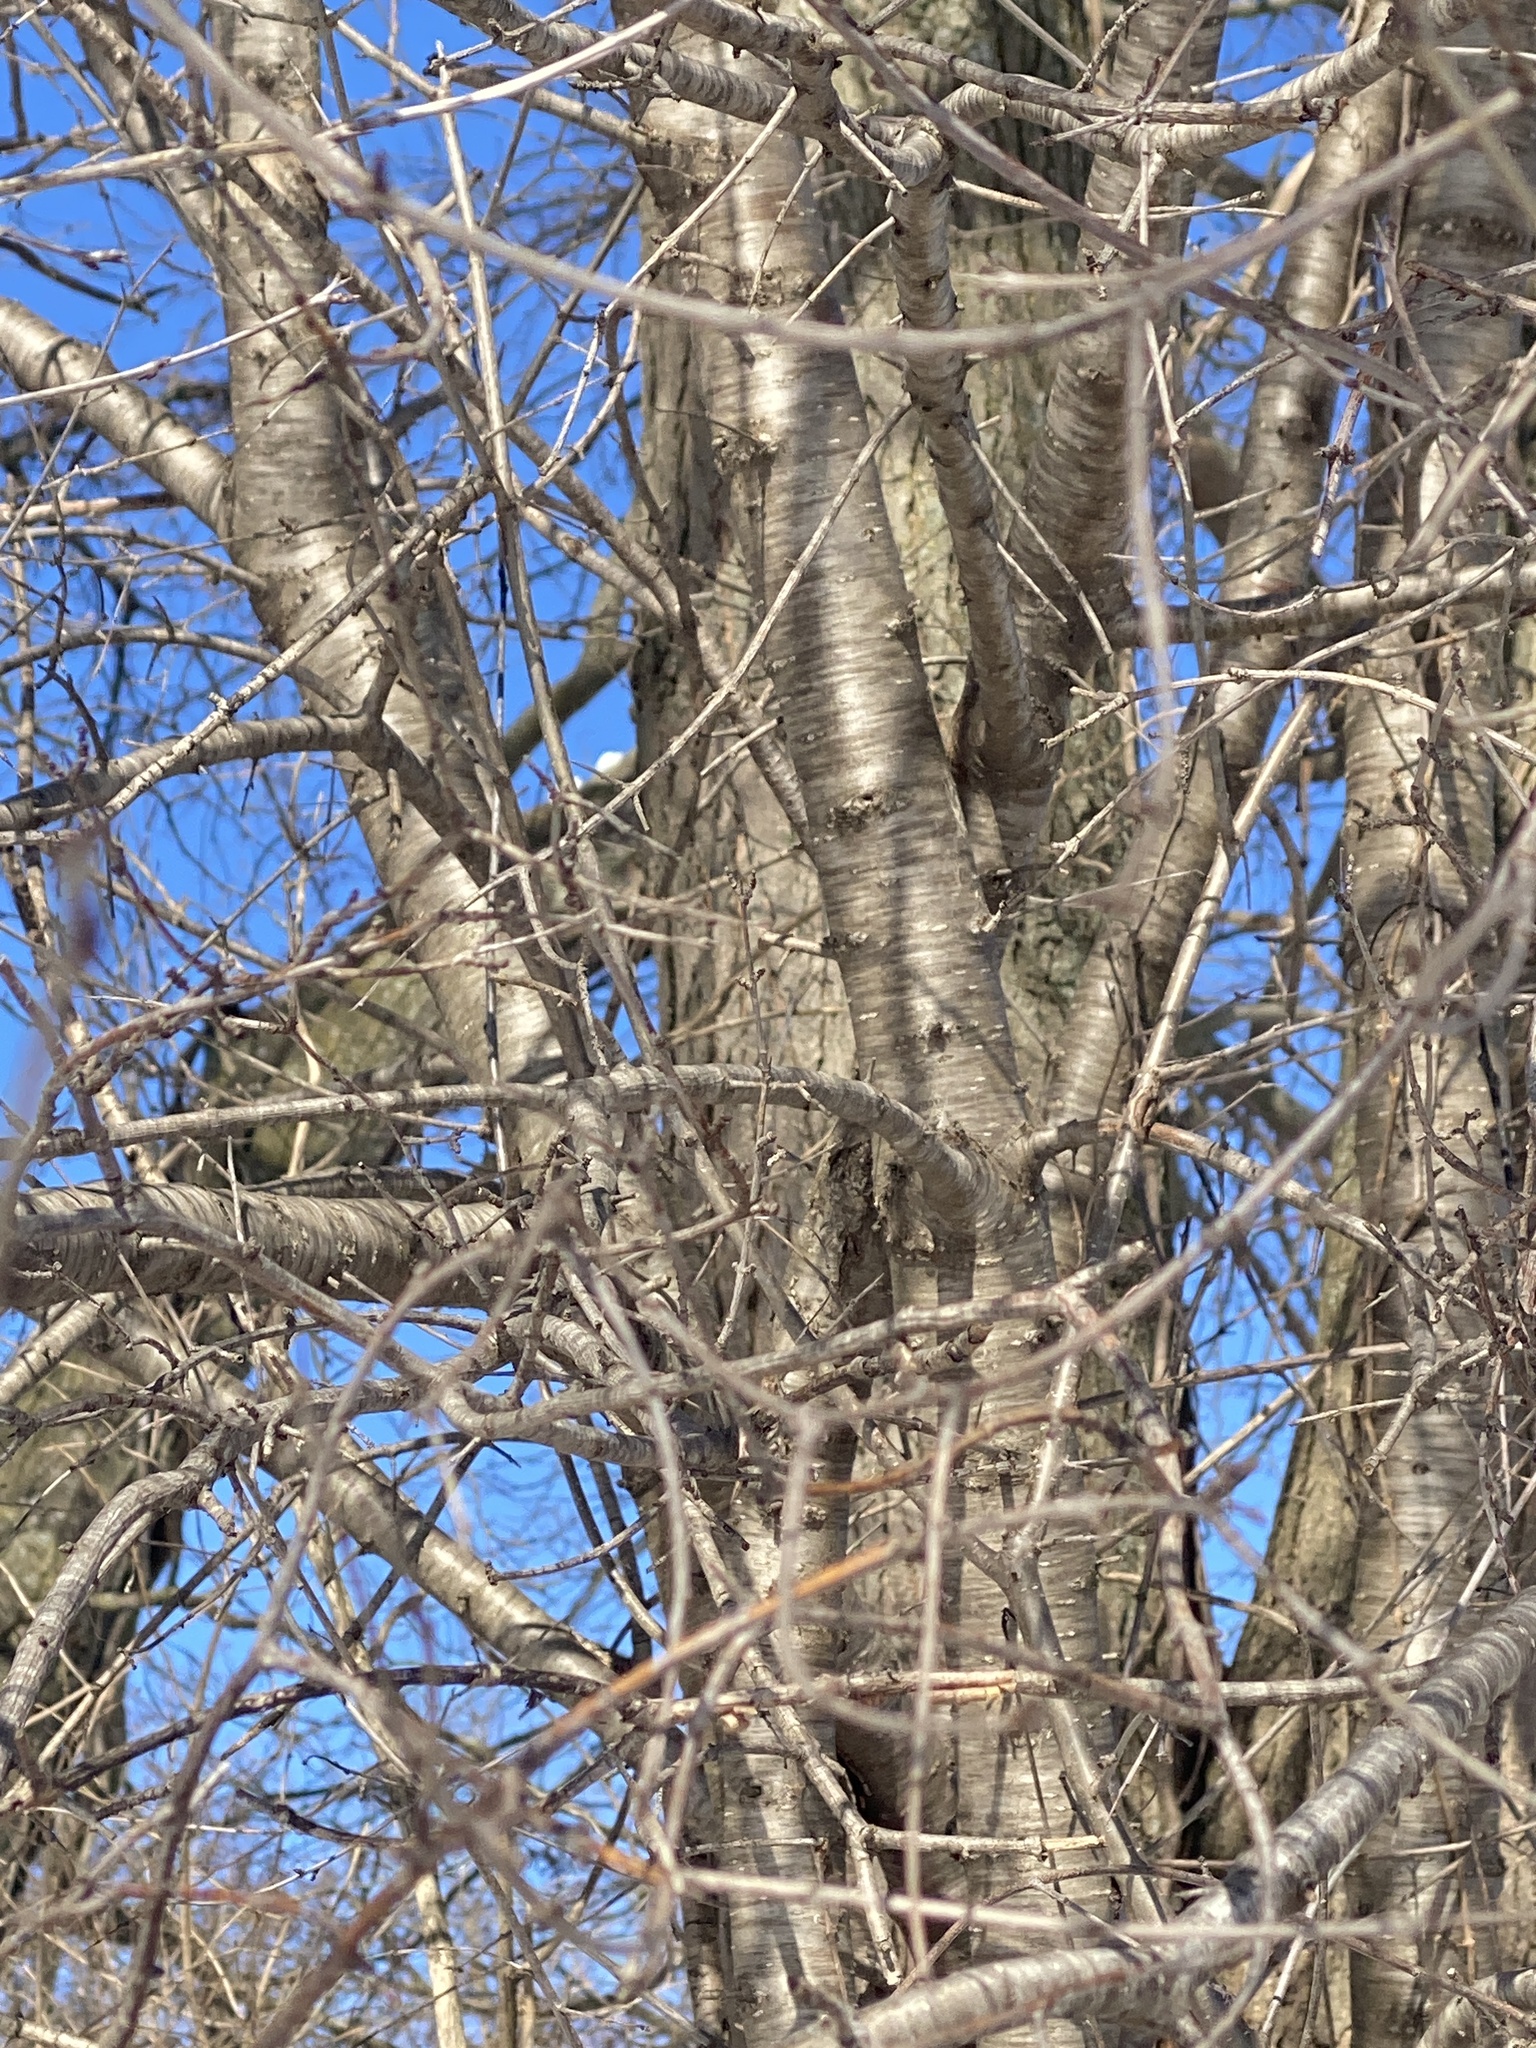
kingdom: Plantae
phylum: Tracheophyta
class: Magnoliopsida
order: Rosales
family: Rhamnaceae
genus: Rhamnus
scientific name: Rhamnus cathartica
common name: Common buckthorn
